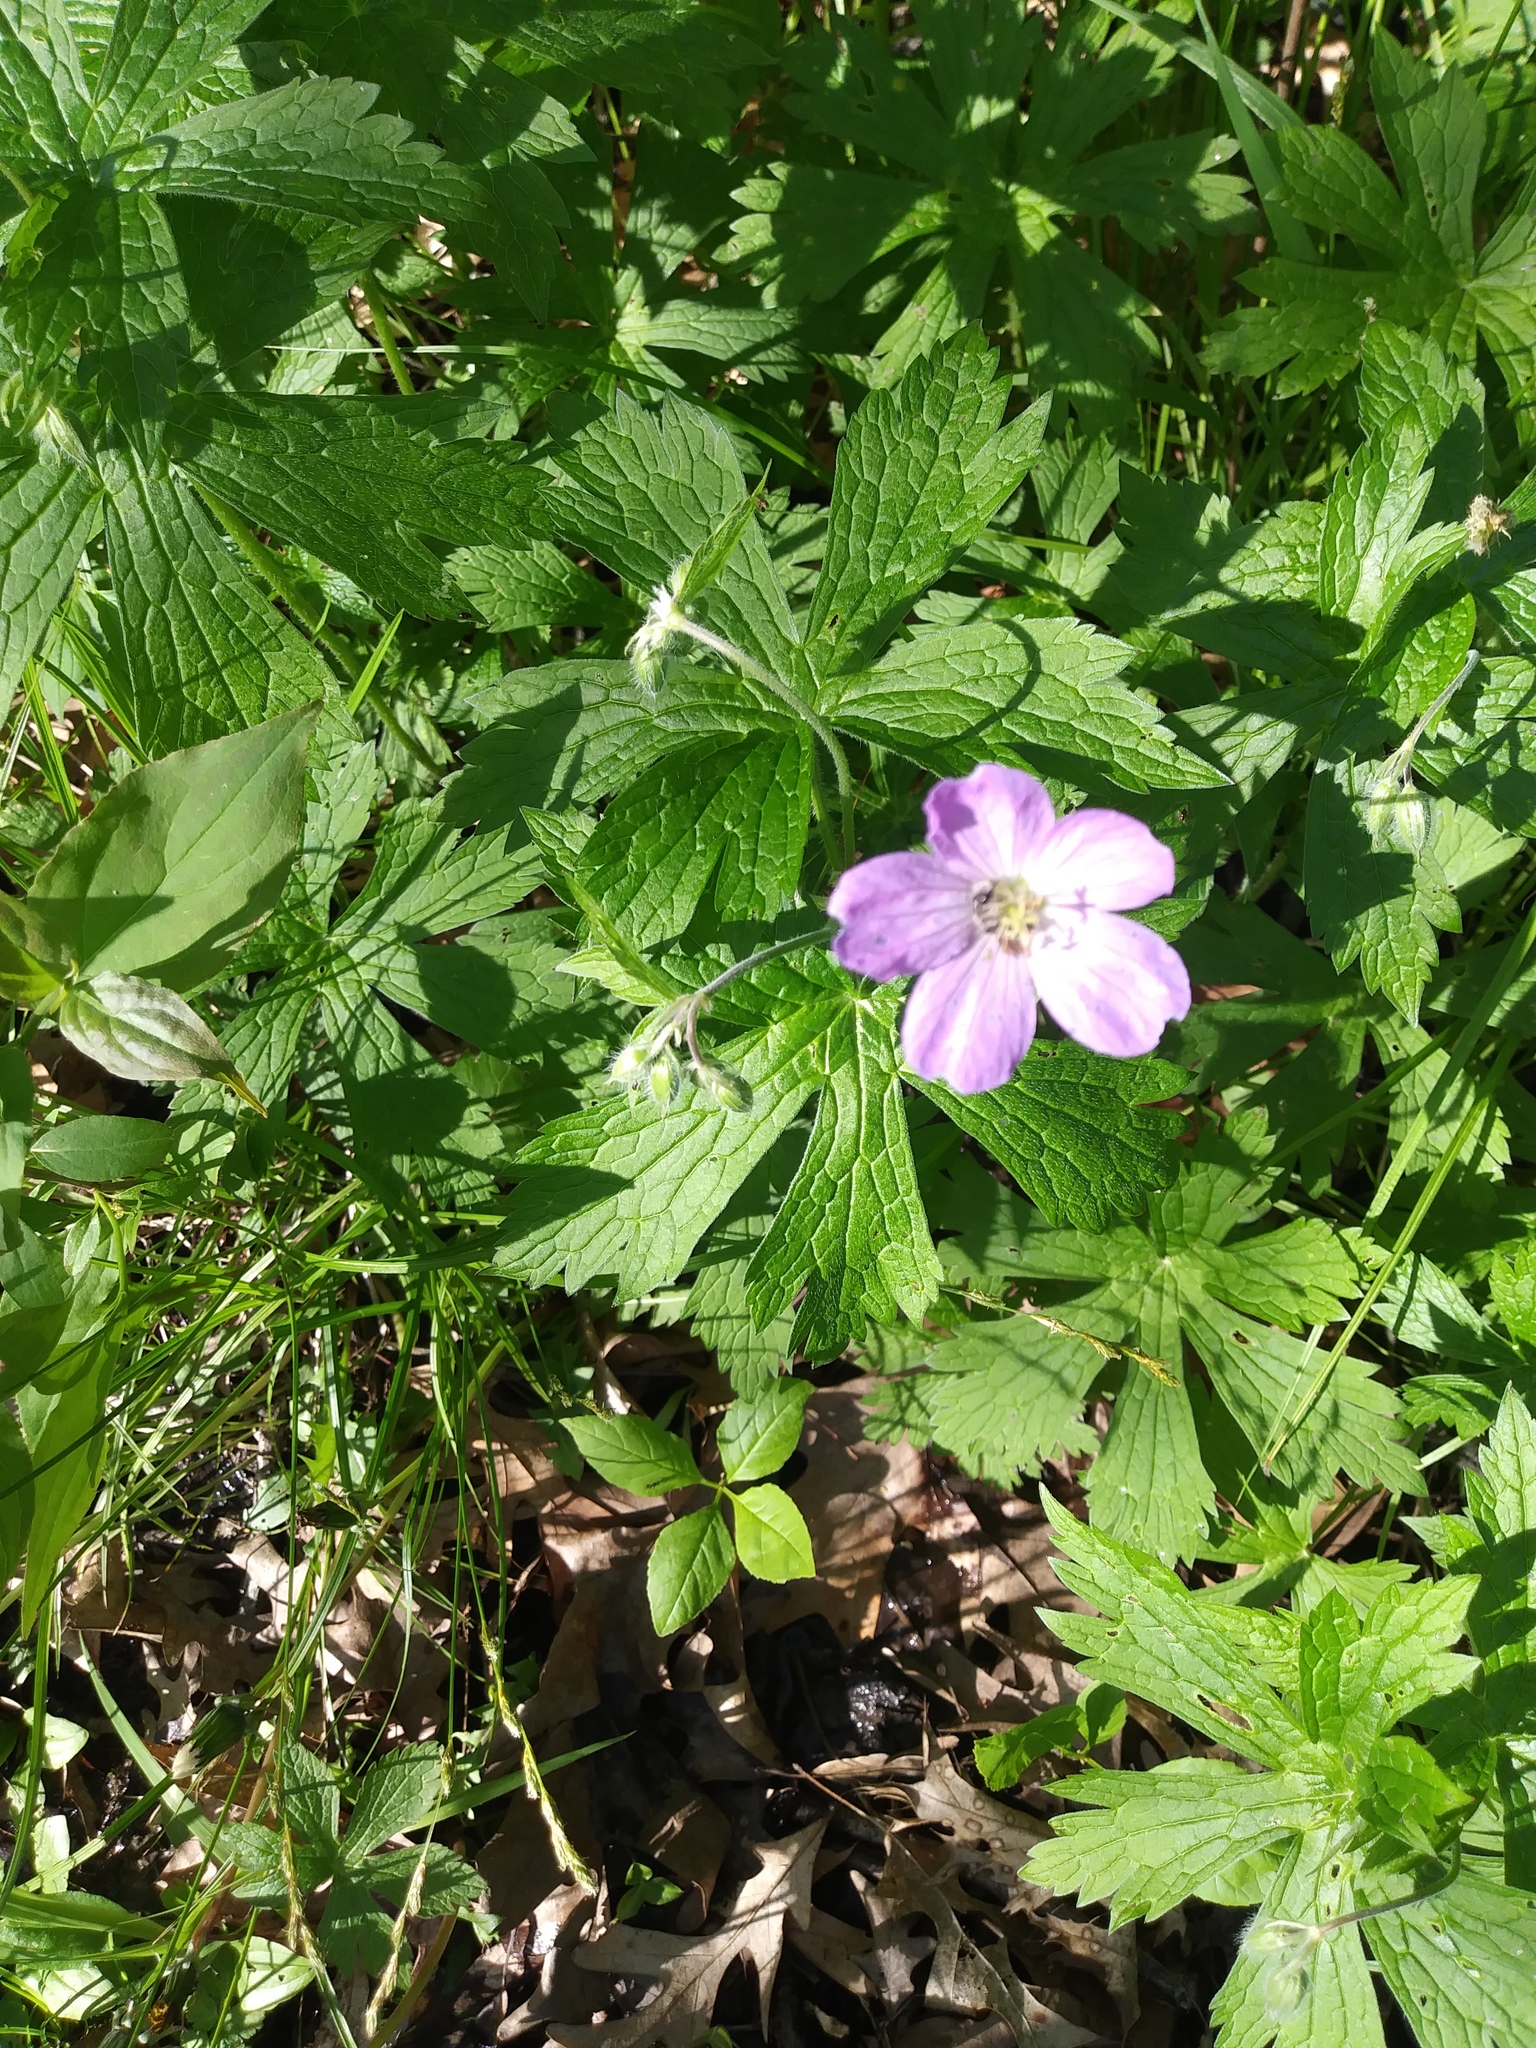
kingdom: Plantae
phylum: Tracheophyta
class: Magnoliopsida
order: Geraniales
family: Geraniaceae
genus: Geranium
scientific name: Geranium maculatum
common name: Spotted geranium
